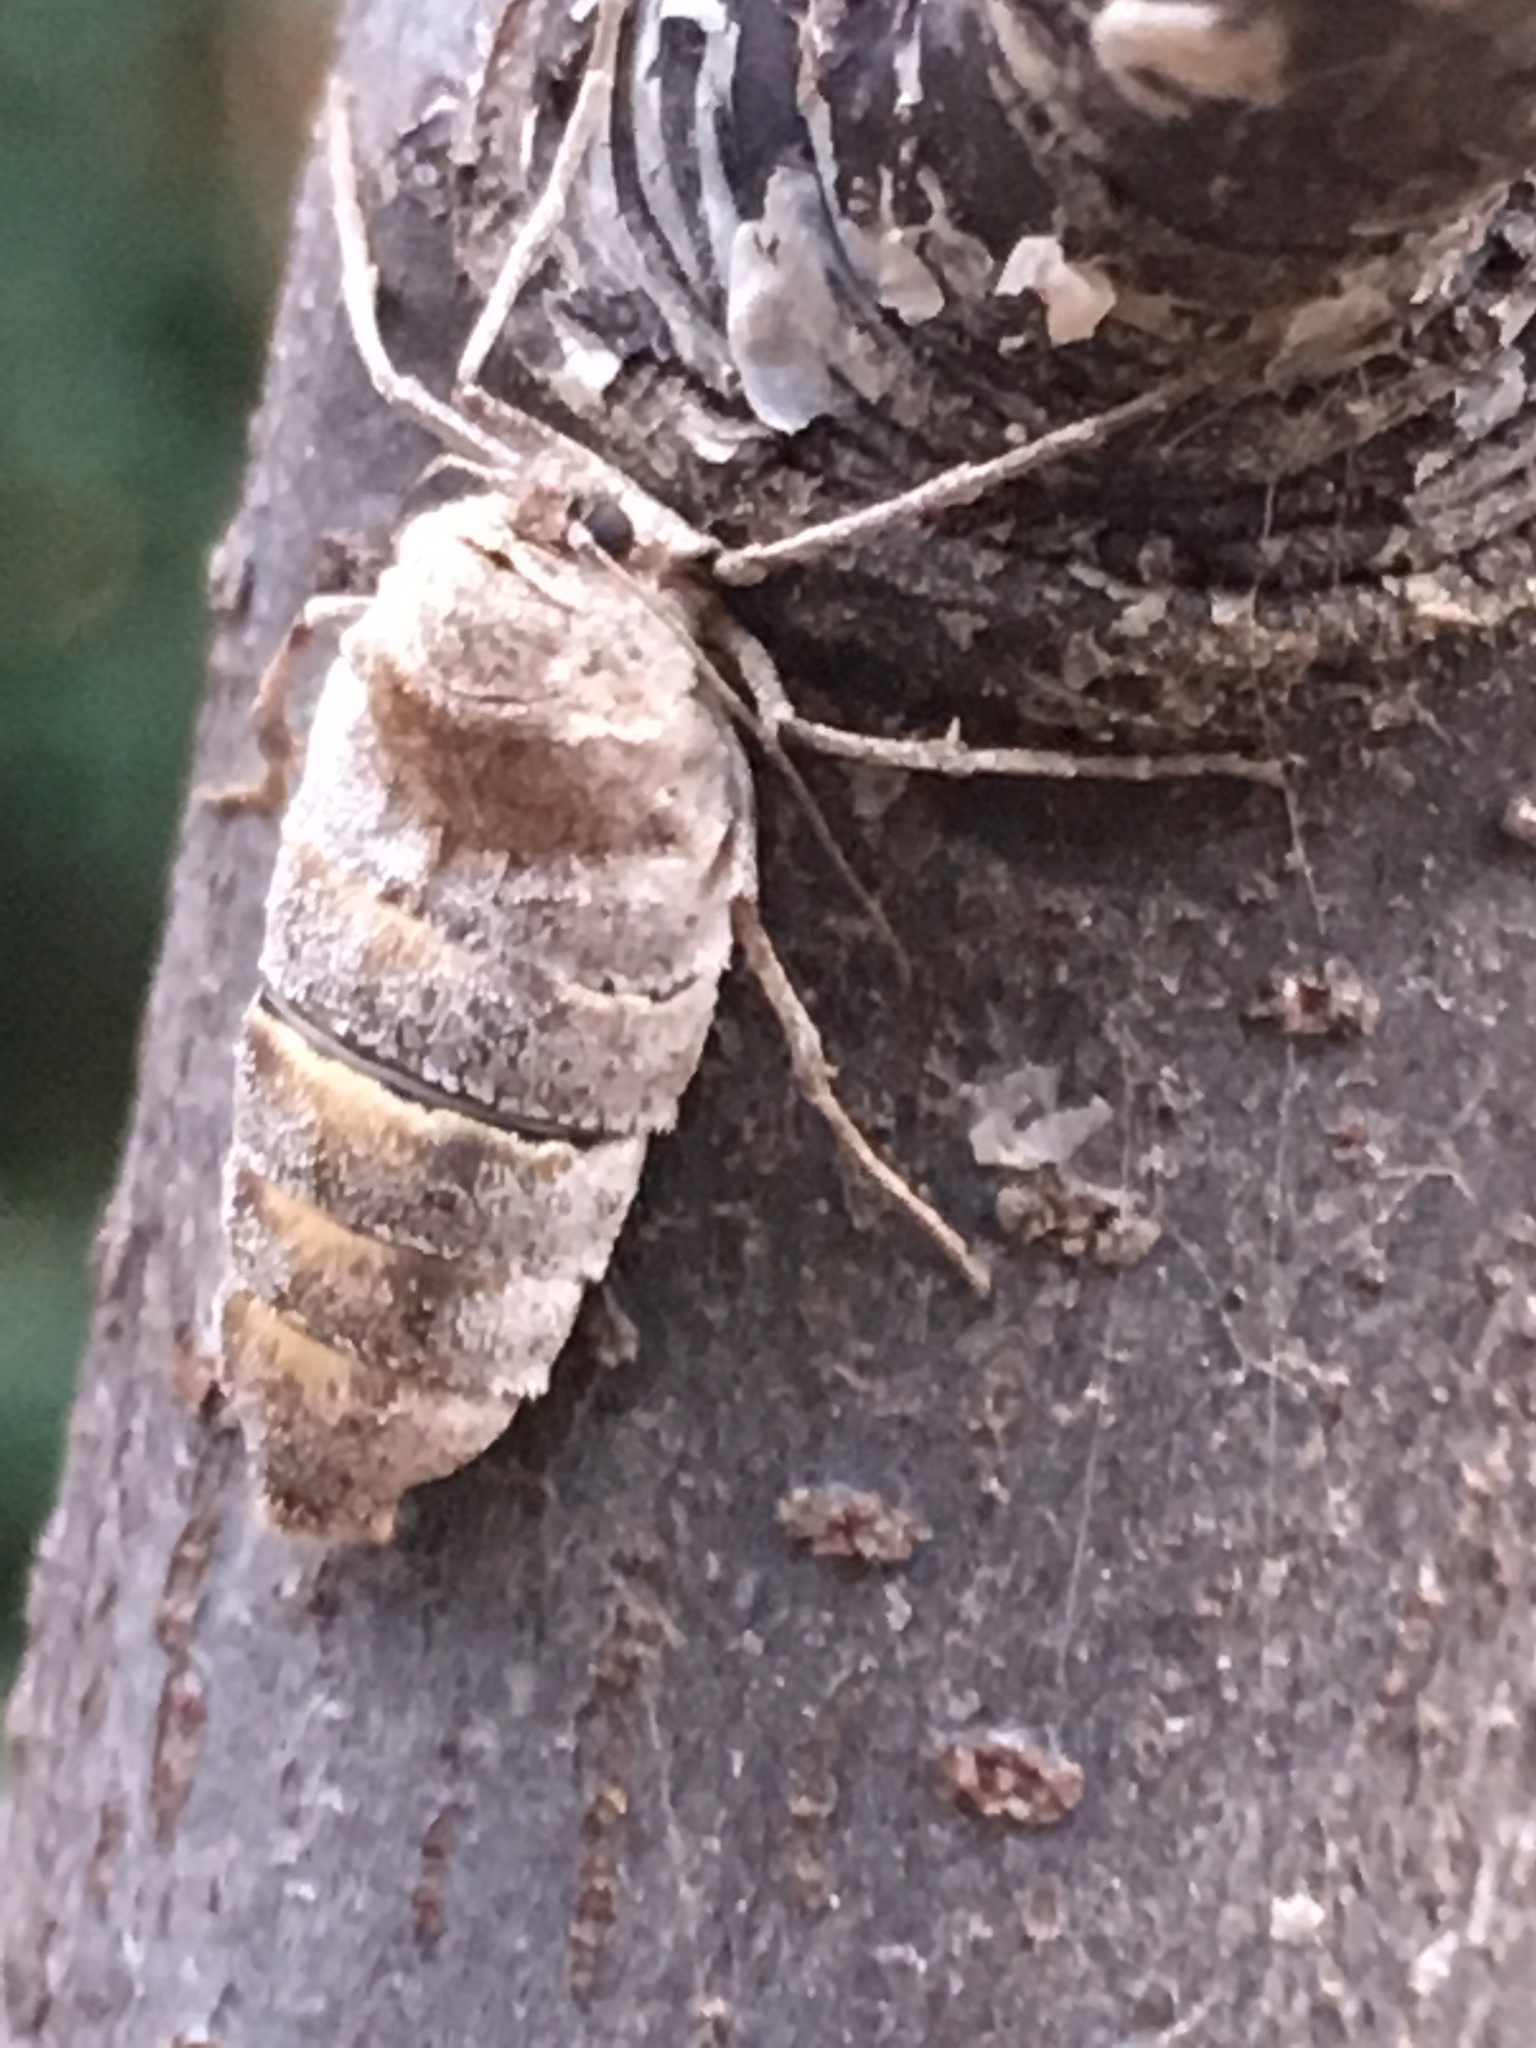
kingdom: Animalia
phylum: Arthropoda
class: Insecta
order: Lepidoptera
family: Geometridae
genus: Alsophila
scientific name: Alsophila pometaria
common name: Fall cankerworm
